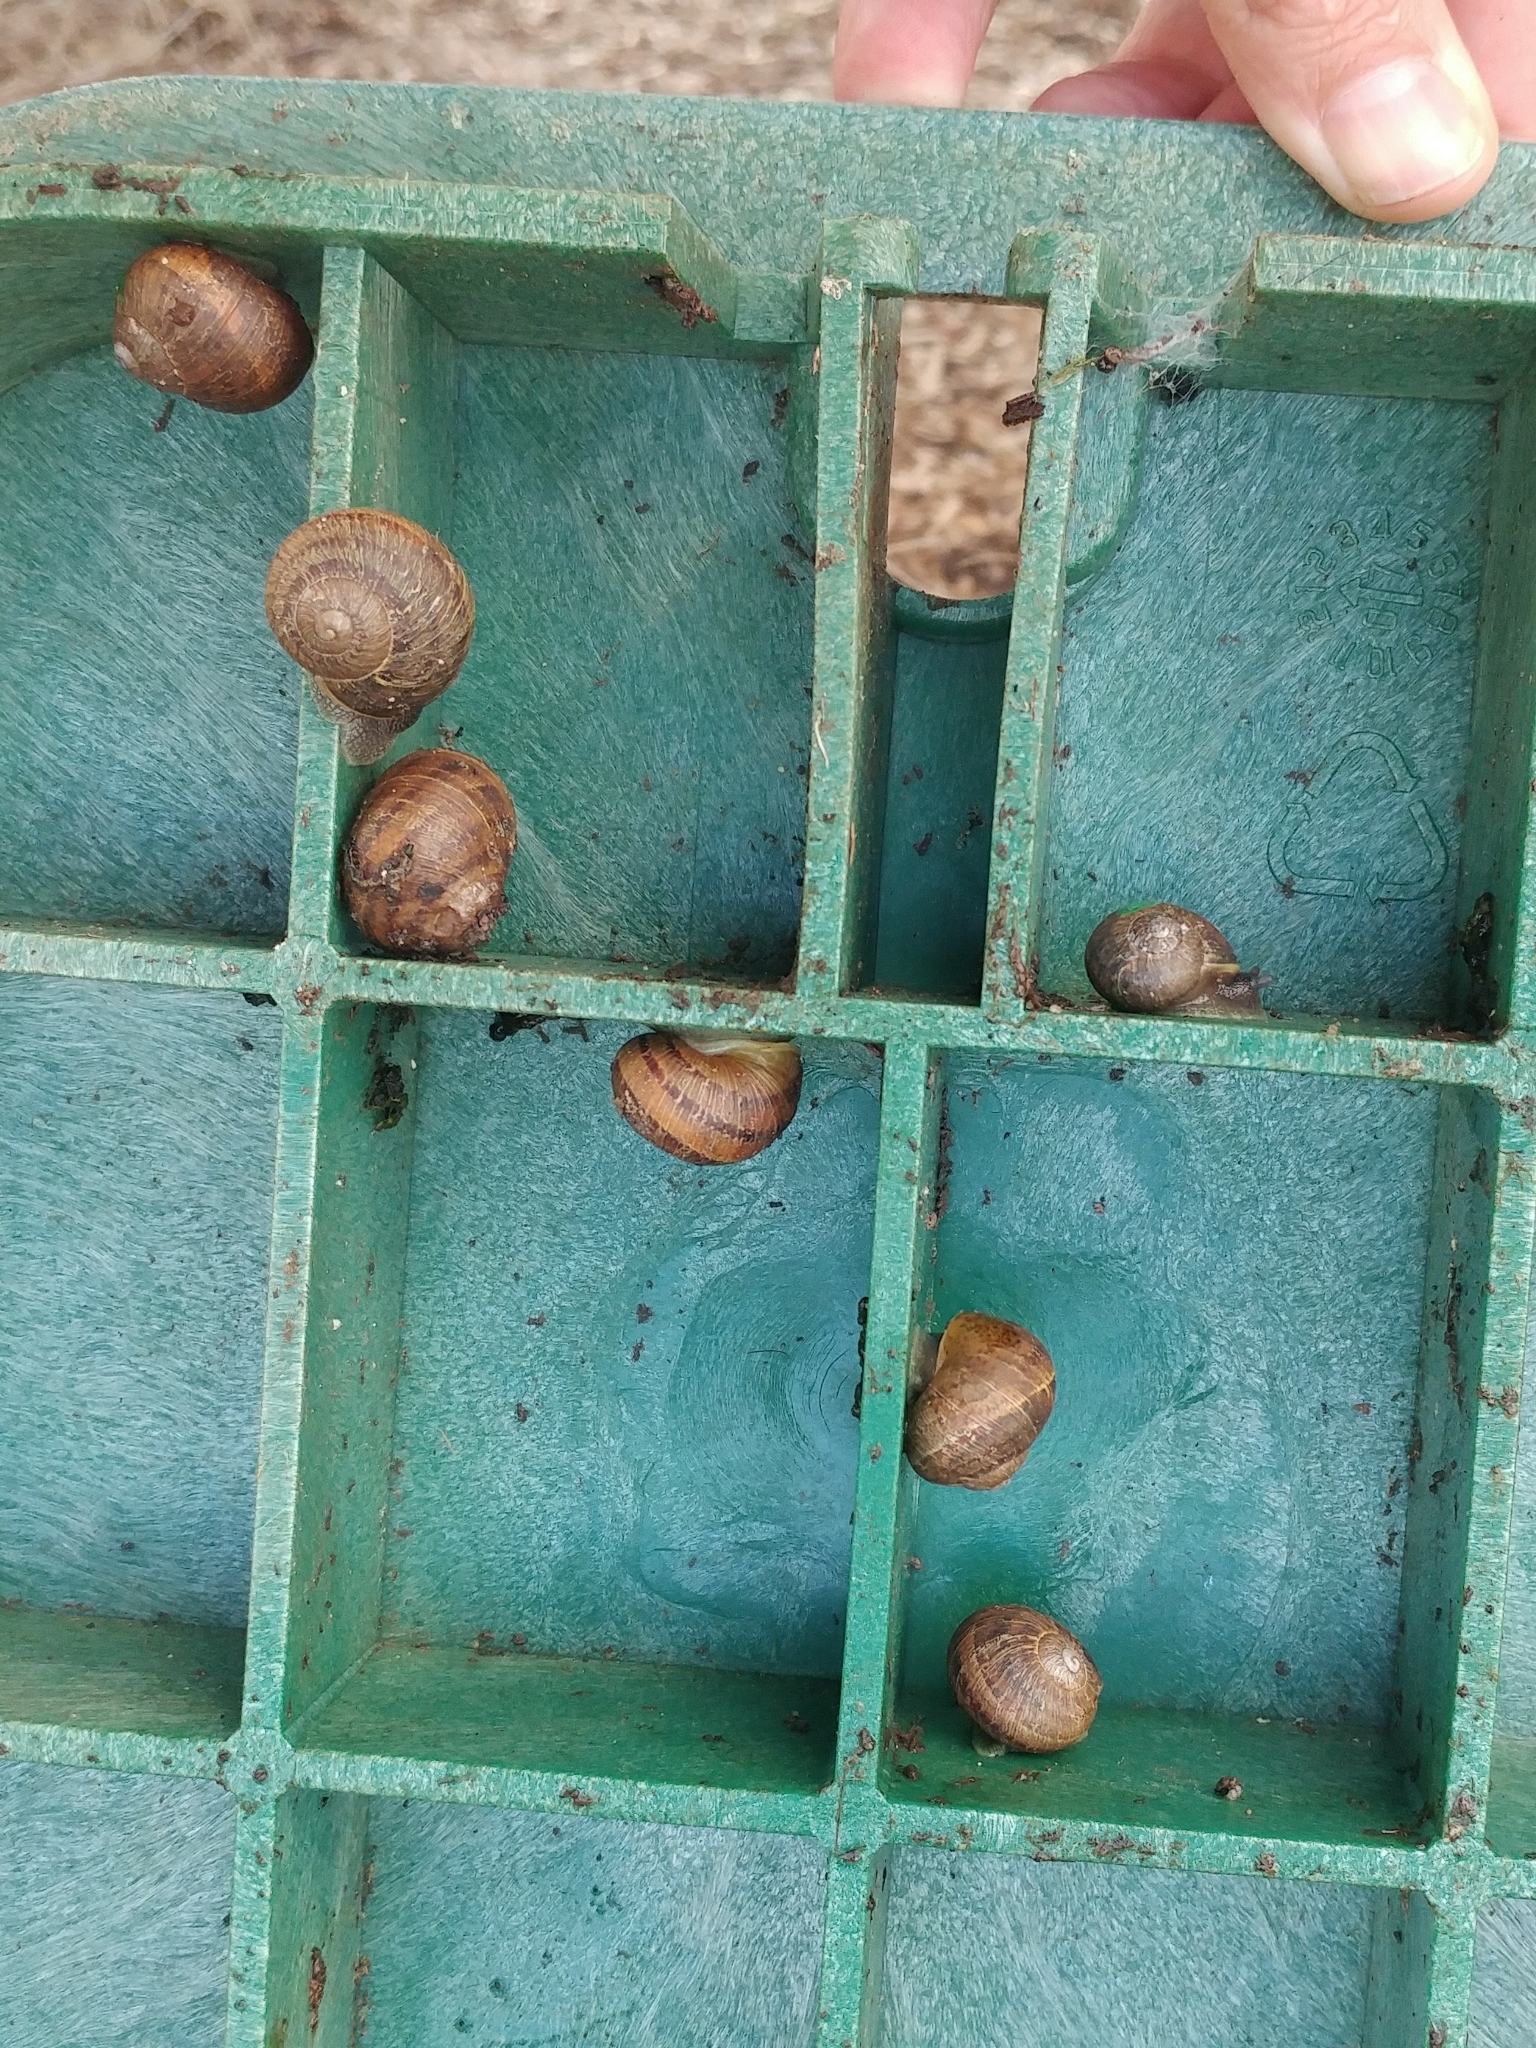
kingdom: Animalia
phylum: Mollusca
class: Gastropoda
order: Stylommatophora
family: Helicidae
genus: Cornu
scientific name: Cornu aspersum
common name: Brown garden snail
